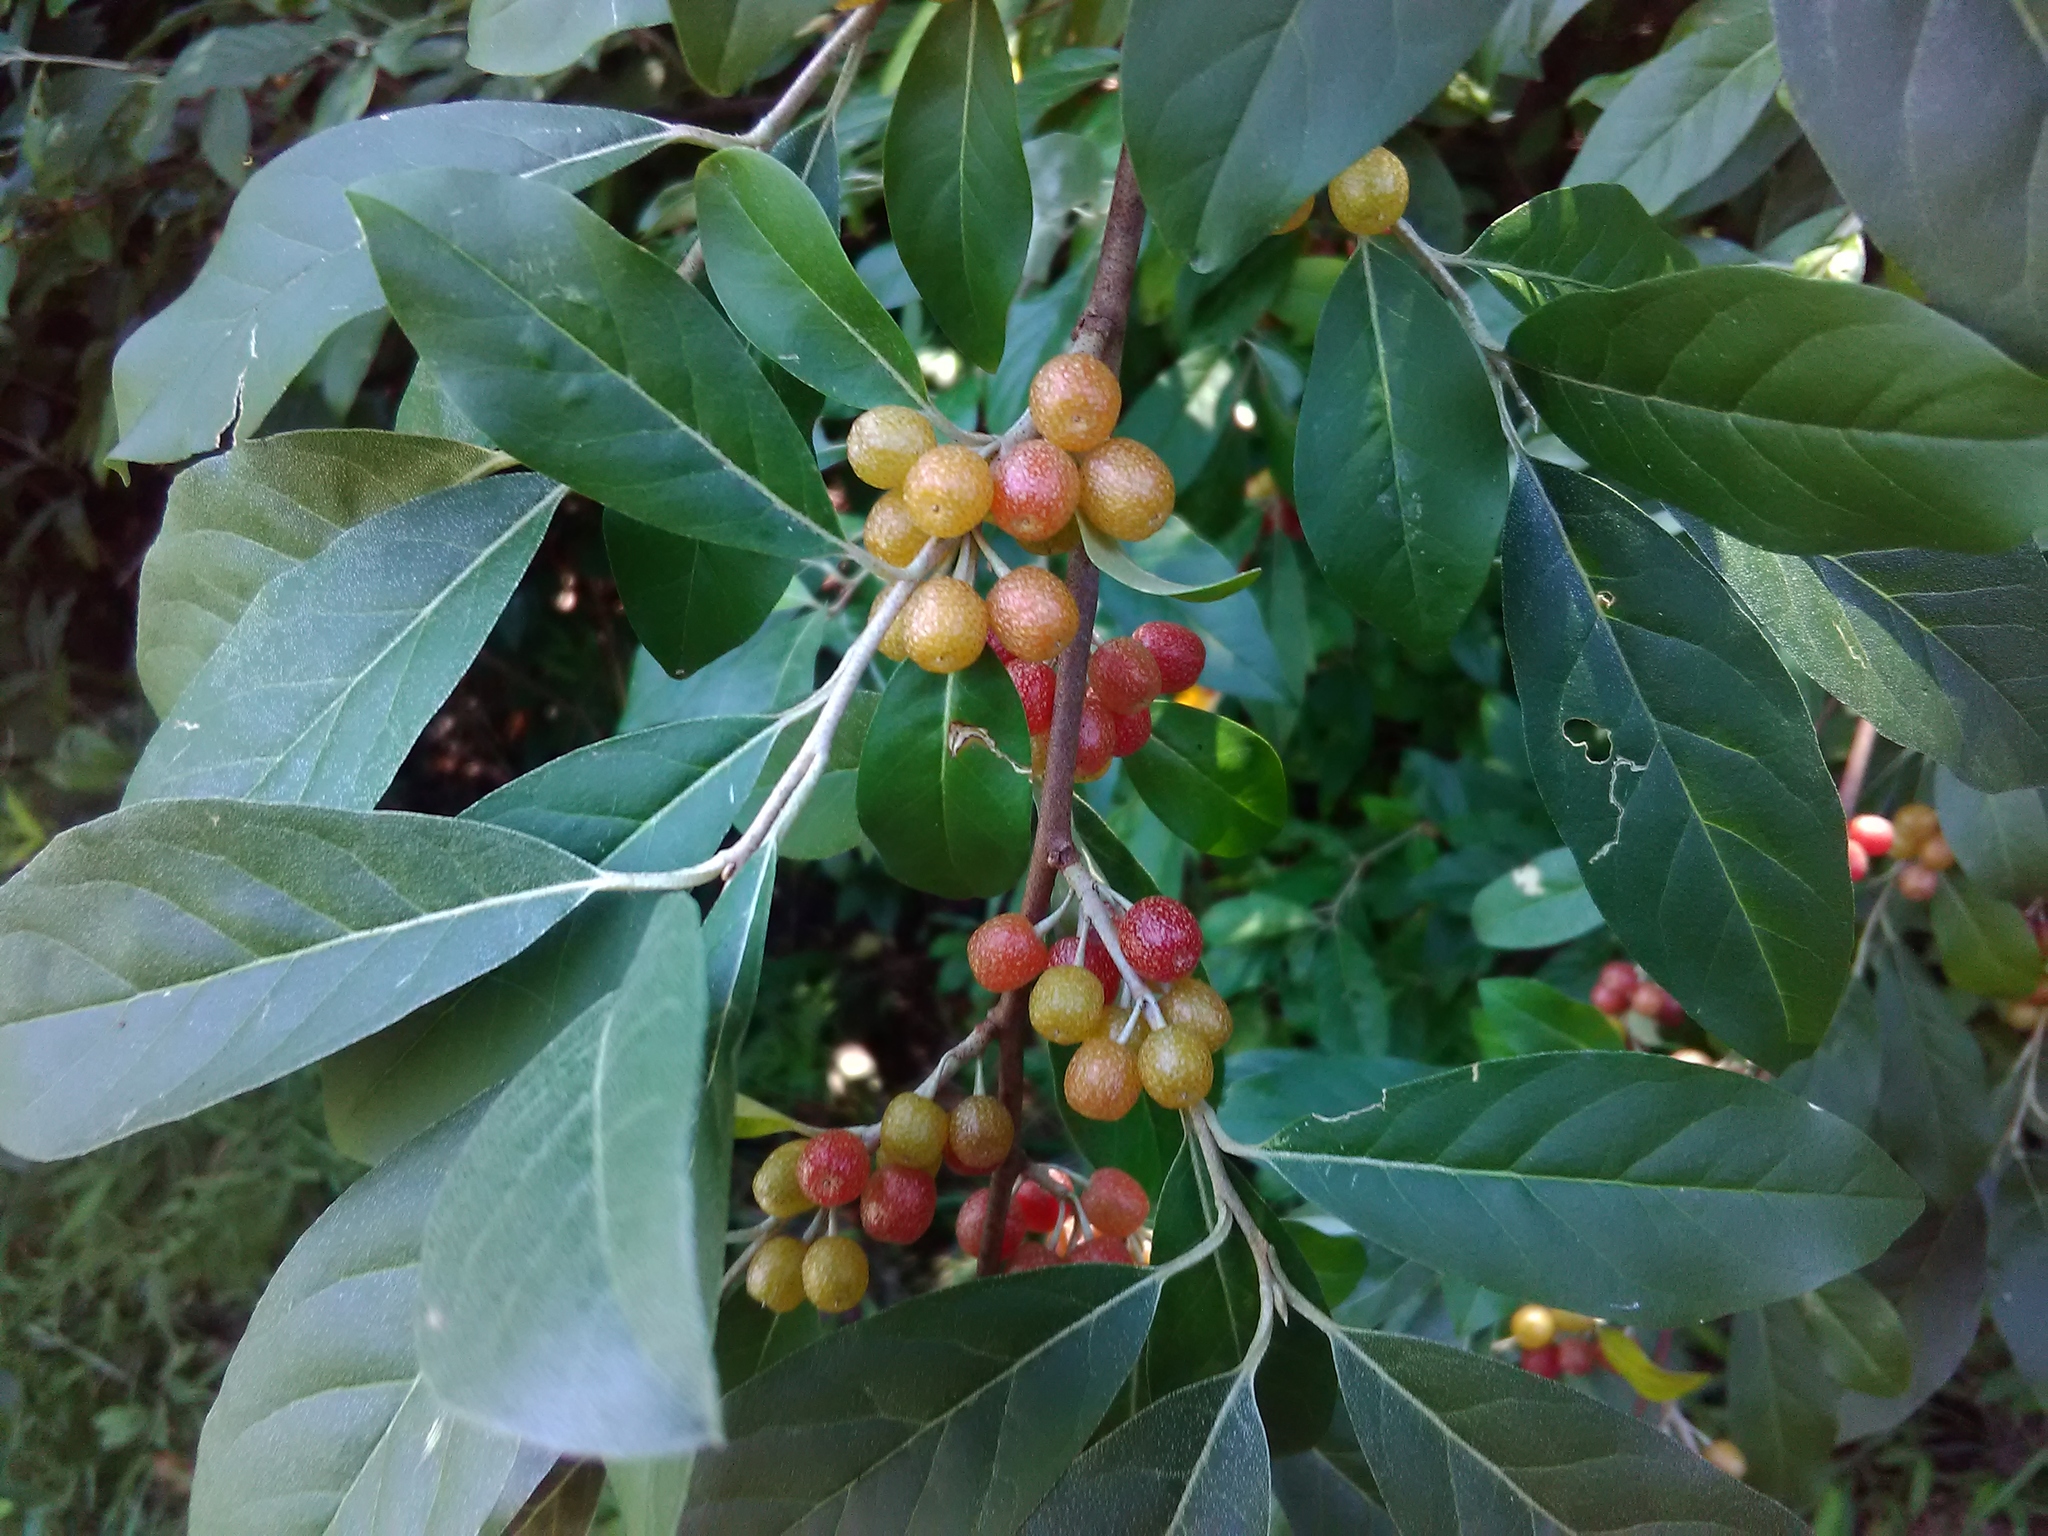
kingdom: Plantae
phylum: Tracheophyta
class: Magnoliopsida
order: Rosales
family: Elaeagnaceae
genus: Elaeagnus
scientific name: Elaeagnus umbellata
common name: Autumn olive
